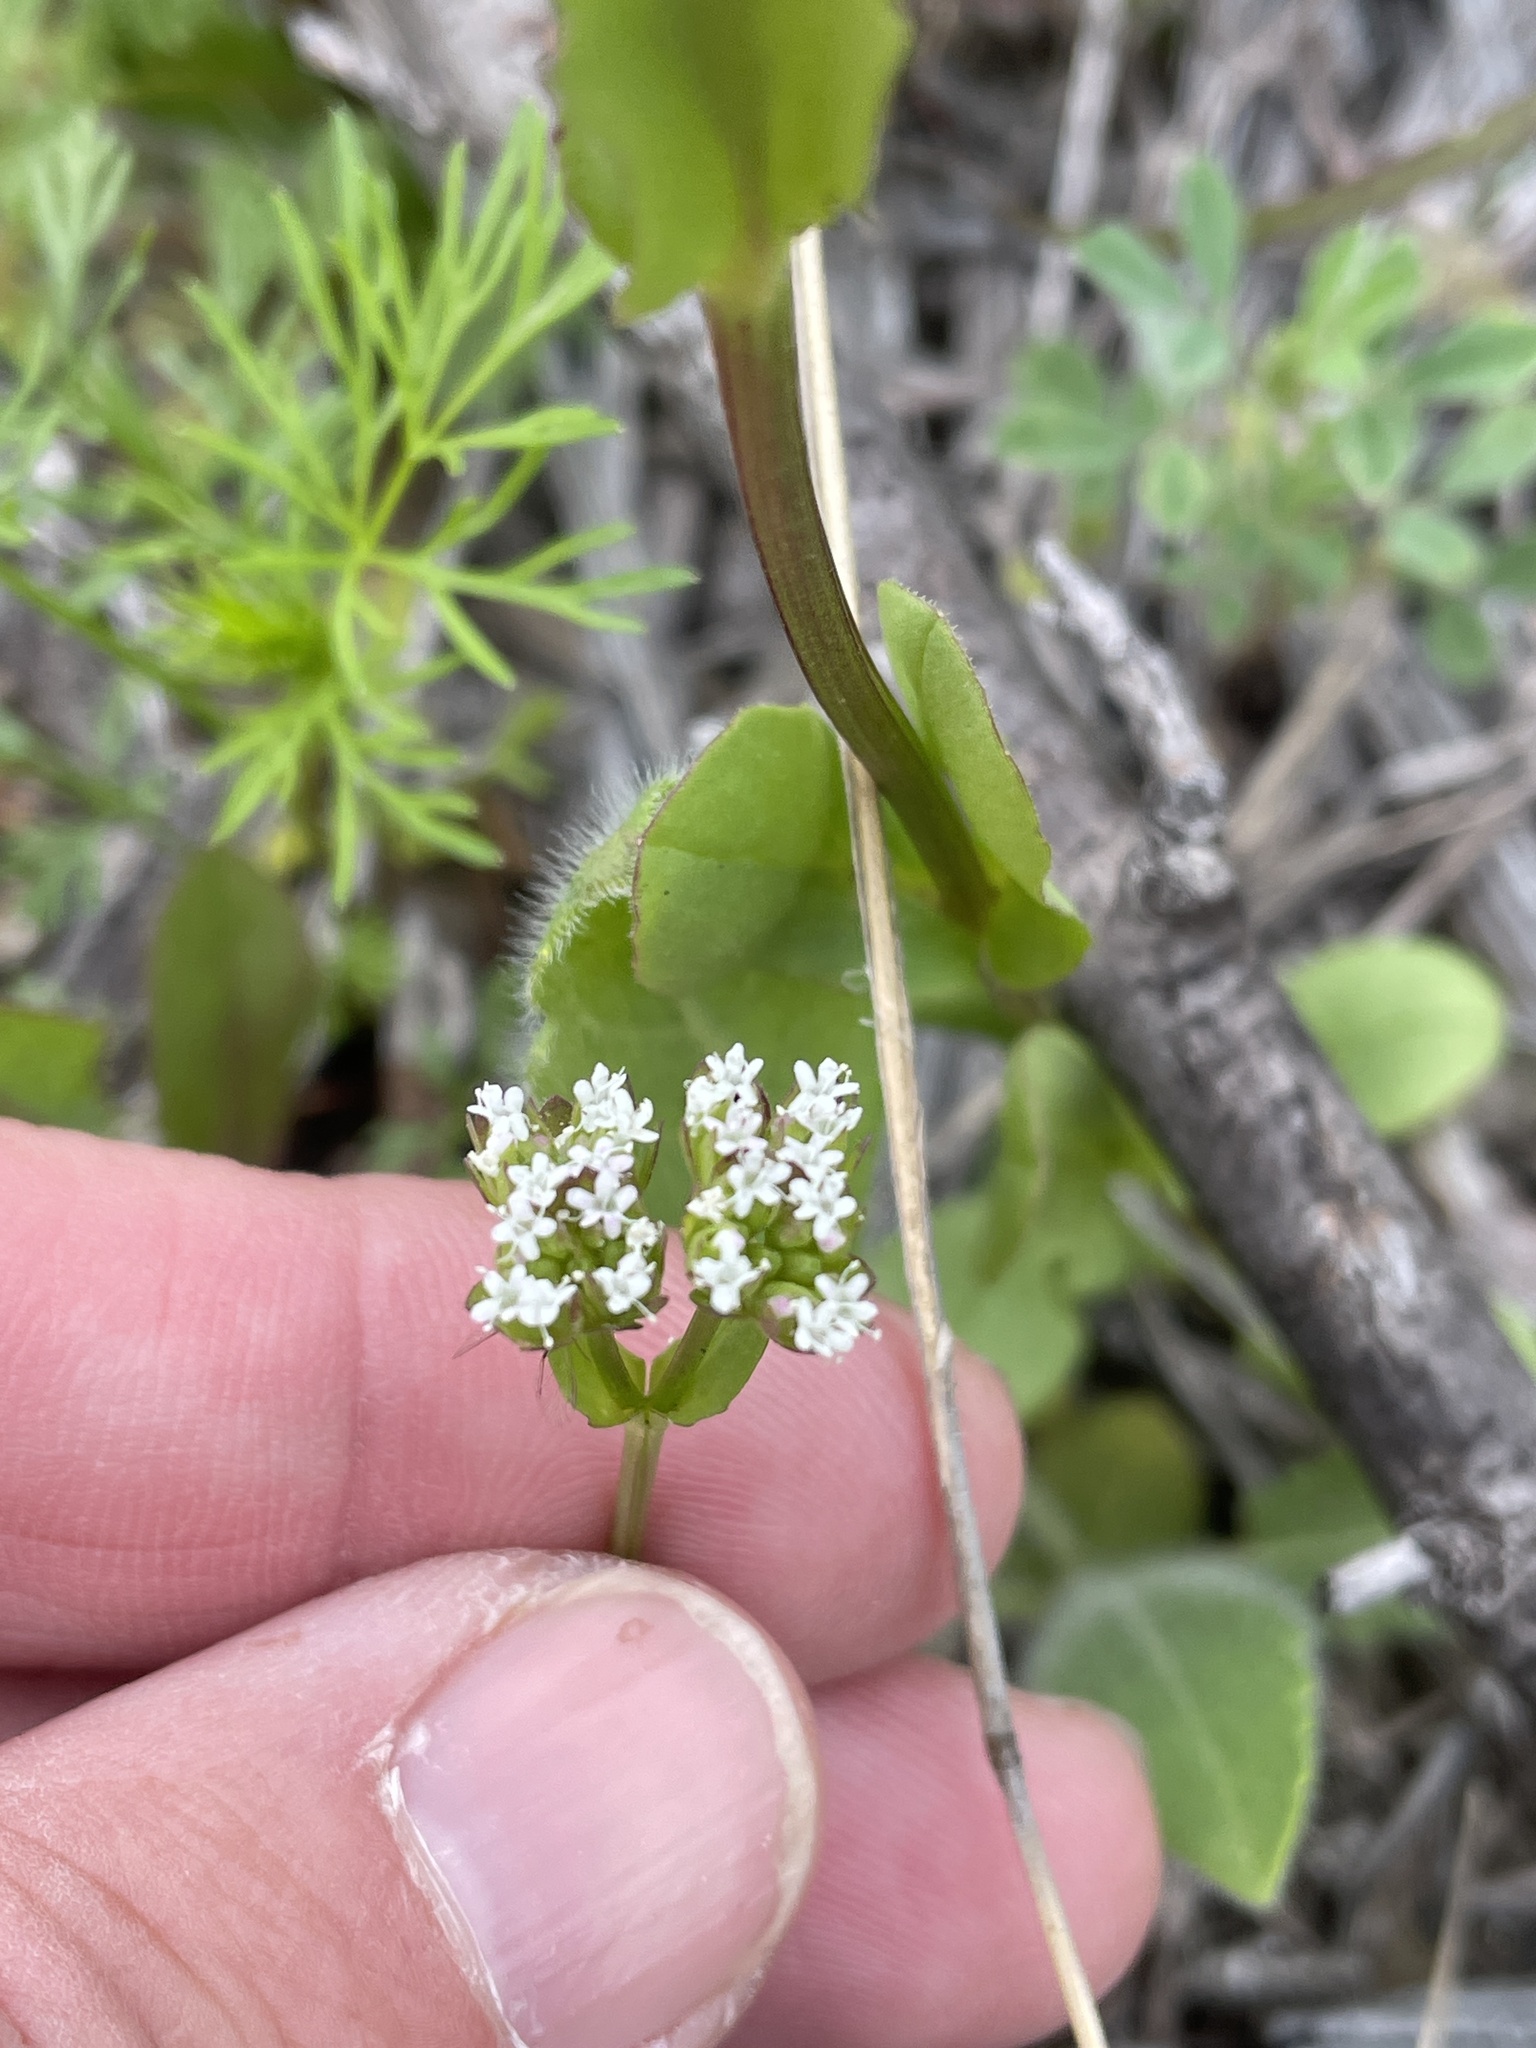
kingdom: Plantae
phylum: Tracheophyta
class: Magnoliopsida
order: Dipsacales
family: Caprifoliaceae
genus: Valerianella
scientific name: Valerianella radiata
